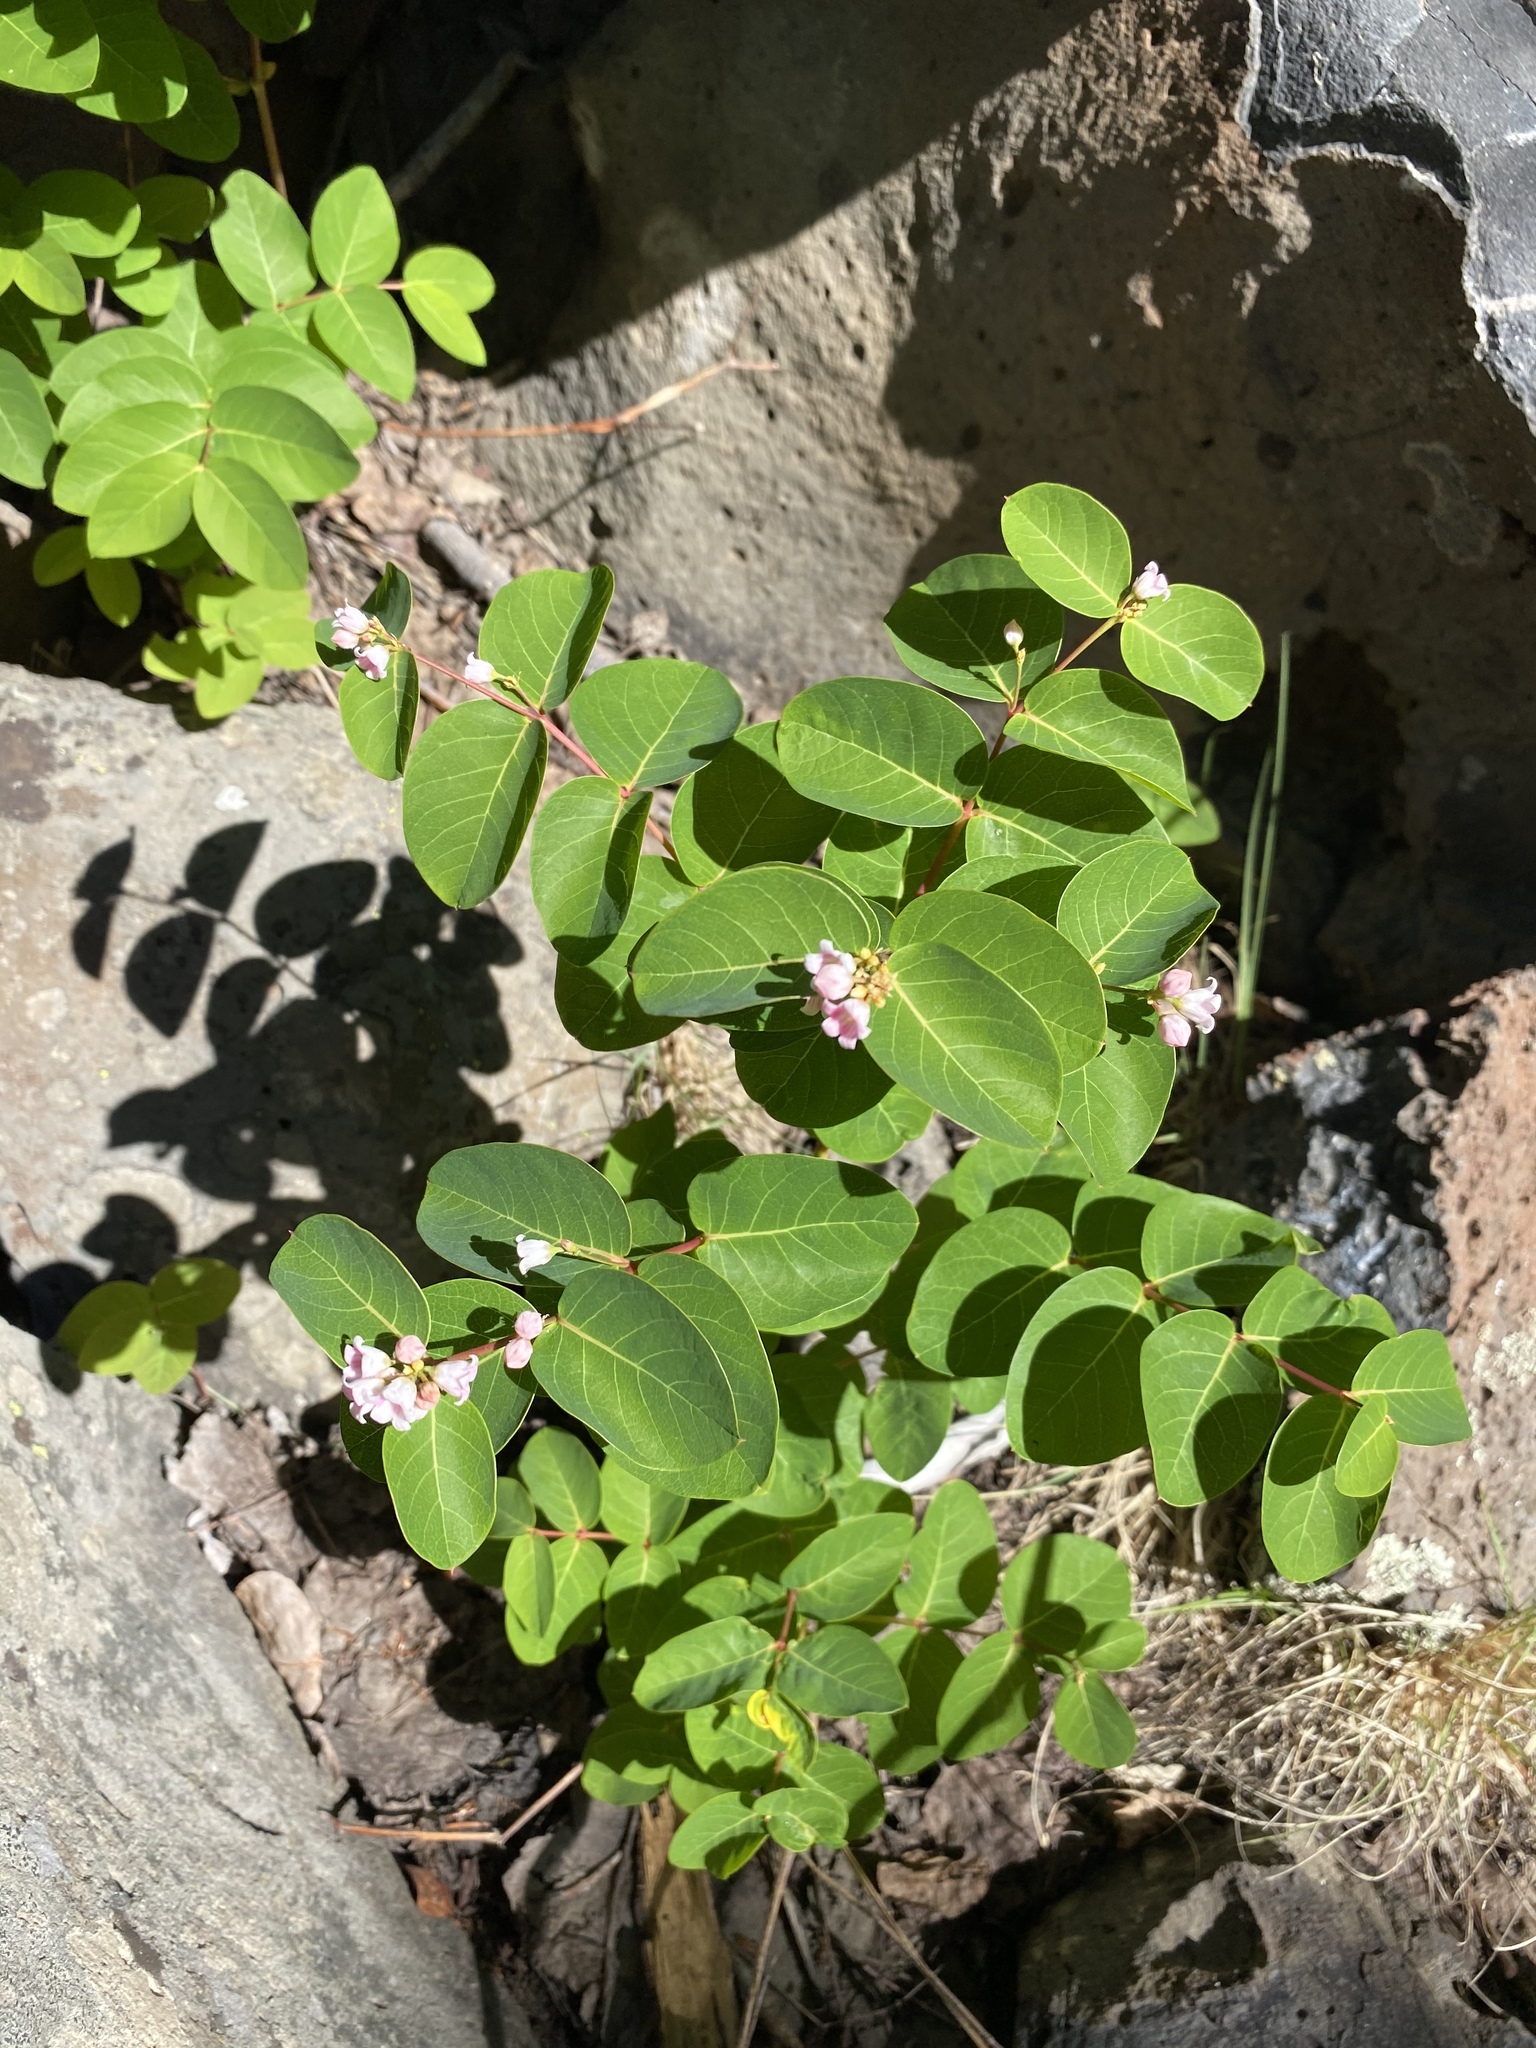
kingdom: Plantae
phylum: Tracheophyta
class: Magnoliopsida
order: Gentianales
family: Apocynaceae
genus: Apocynum
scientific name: Apocynum androsaemifolium
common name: Spreading dogbane
